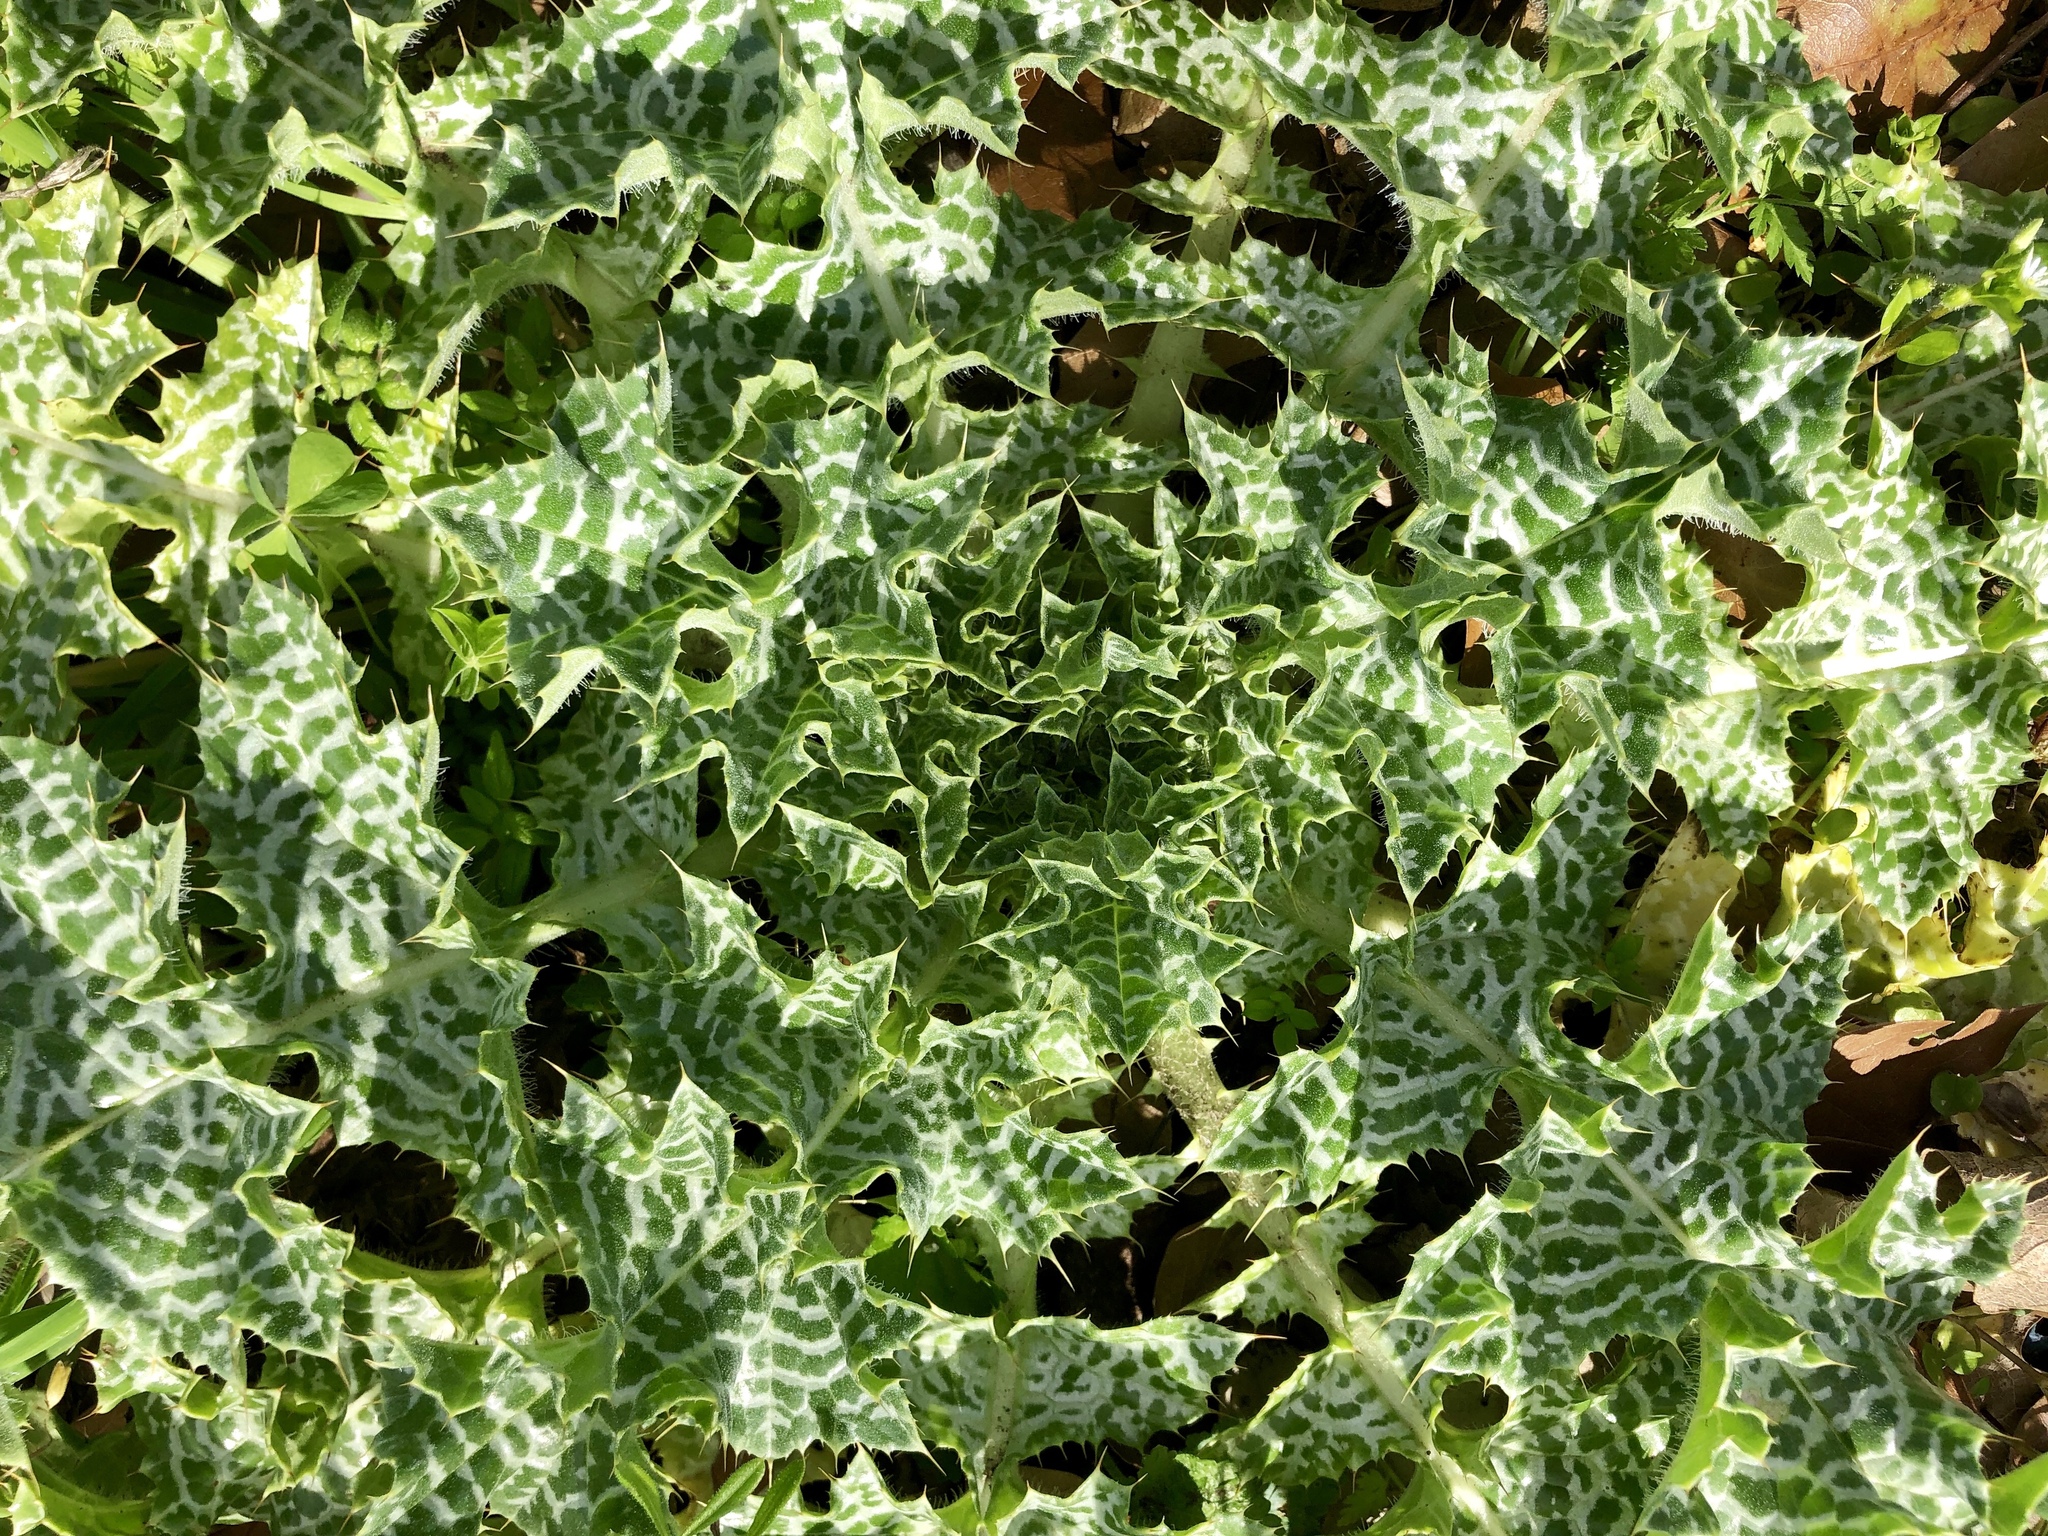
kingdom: Plantae
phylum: Tracheophyta
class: Magnoliopsida
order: Asterales
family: Asteraceae
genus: Silybum
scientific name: Silybum marianum
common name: Milk thistle
